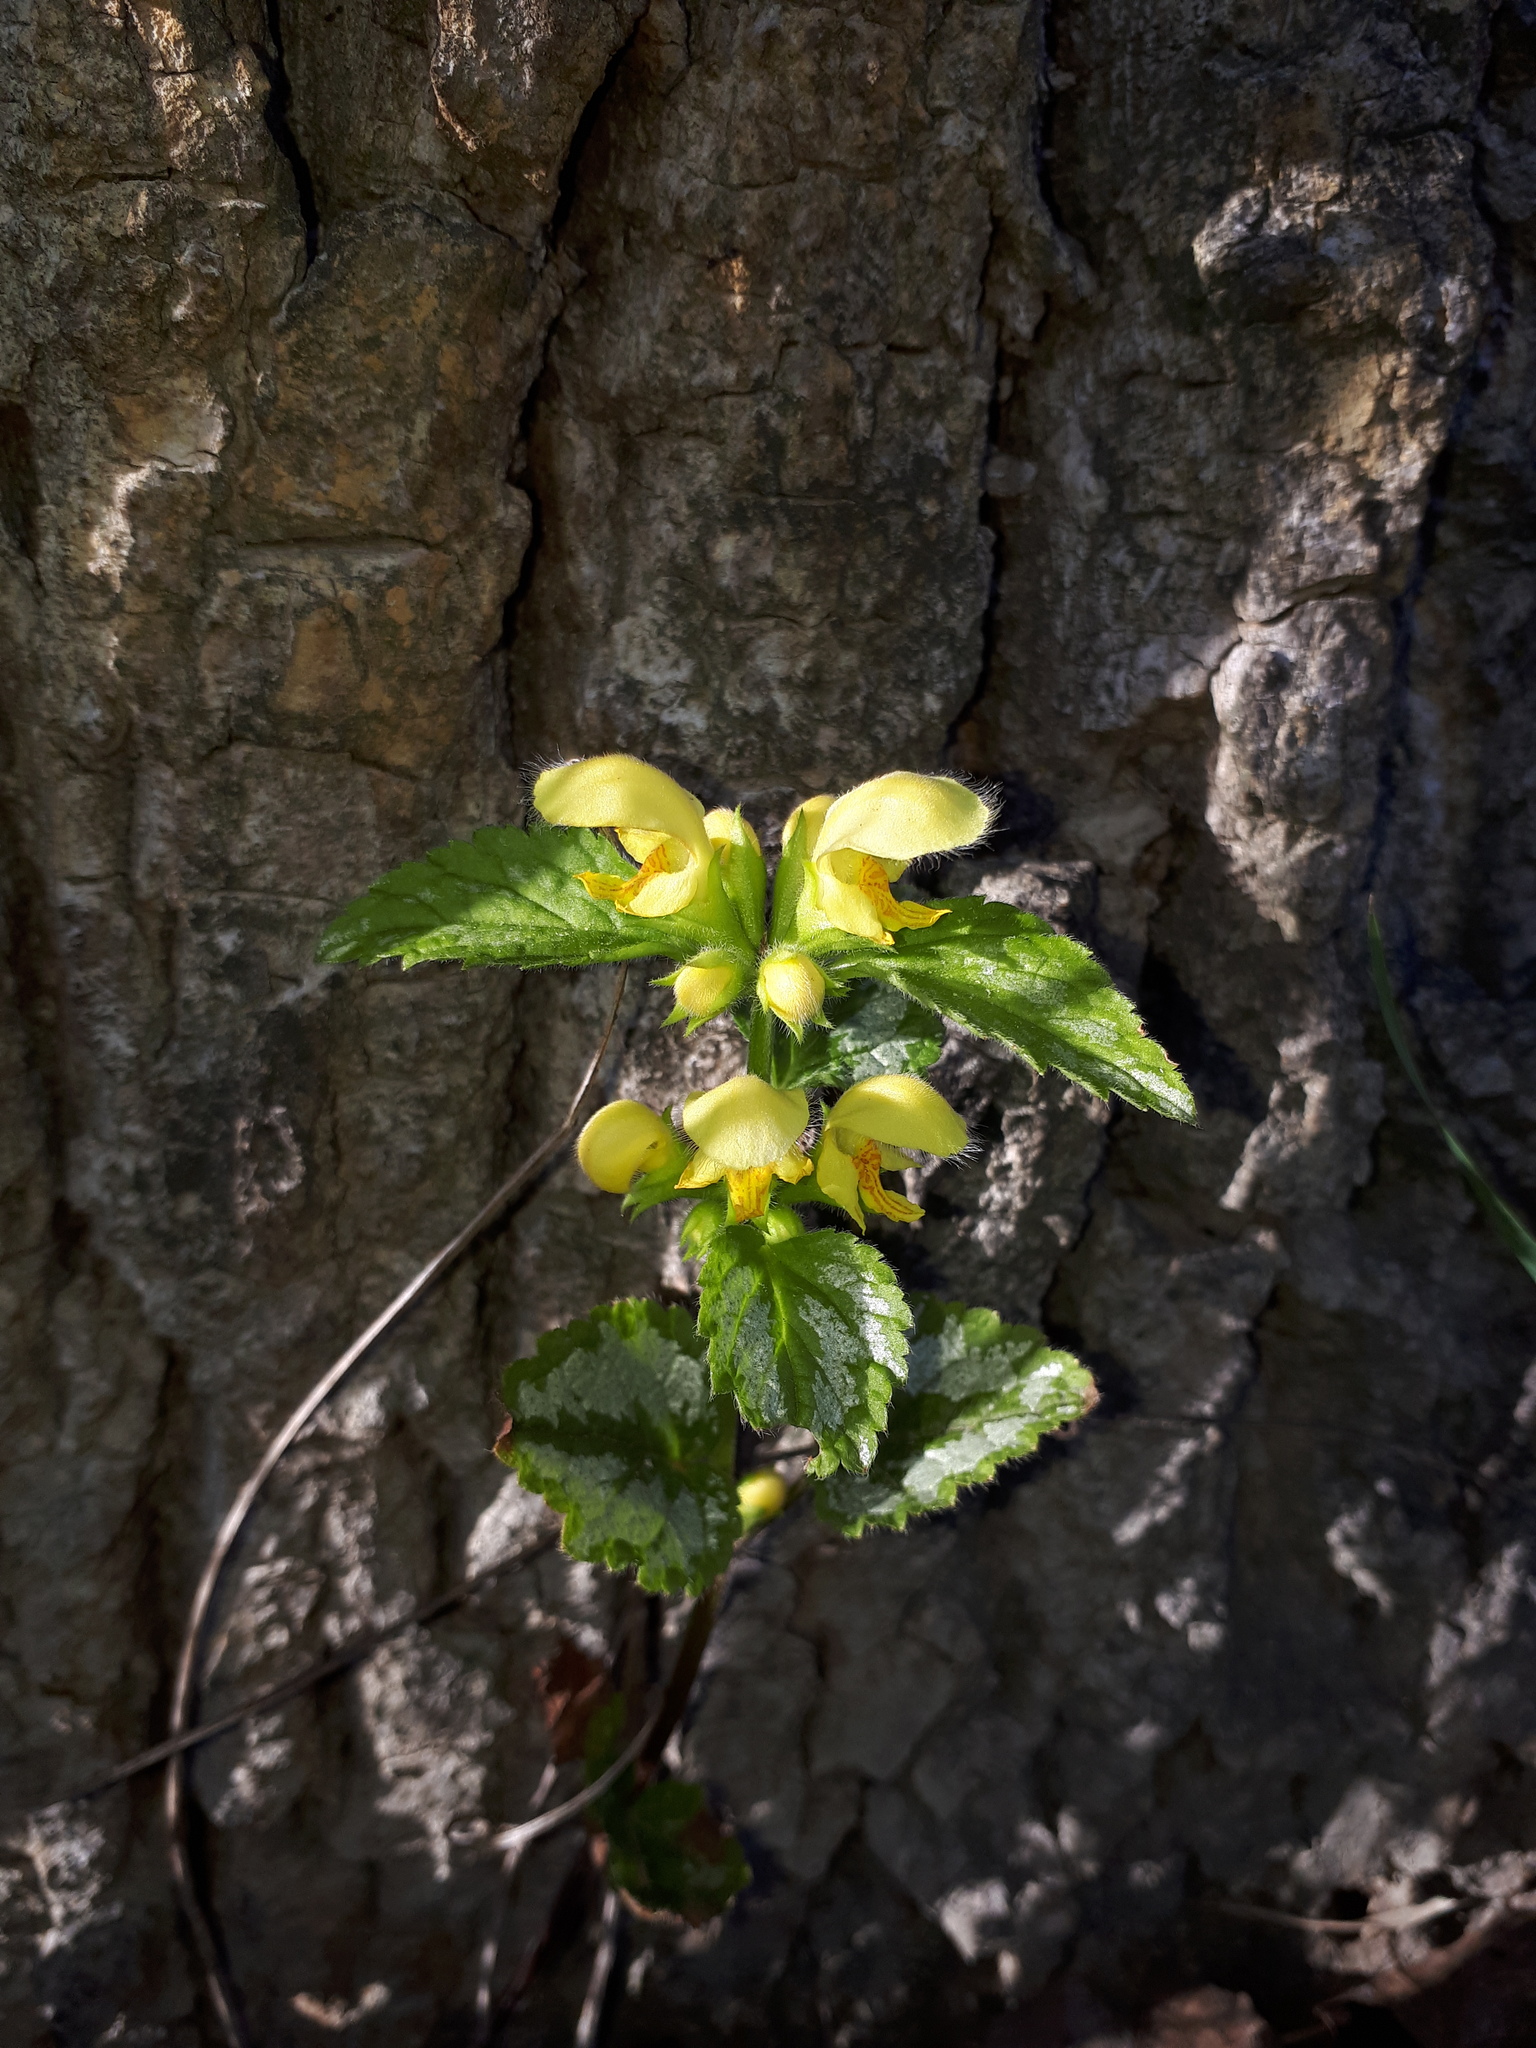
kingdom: Plantae
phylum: Tracheophyta
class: Magnoliopsida
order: Lamiales
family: Lamiaceae
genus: Lamium
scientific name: Lamium galeobdolon
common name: Yellow archangel
